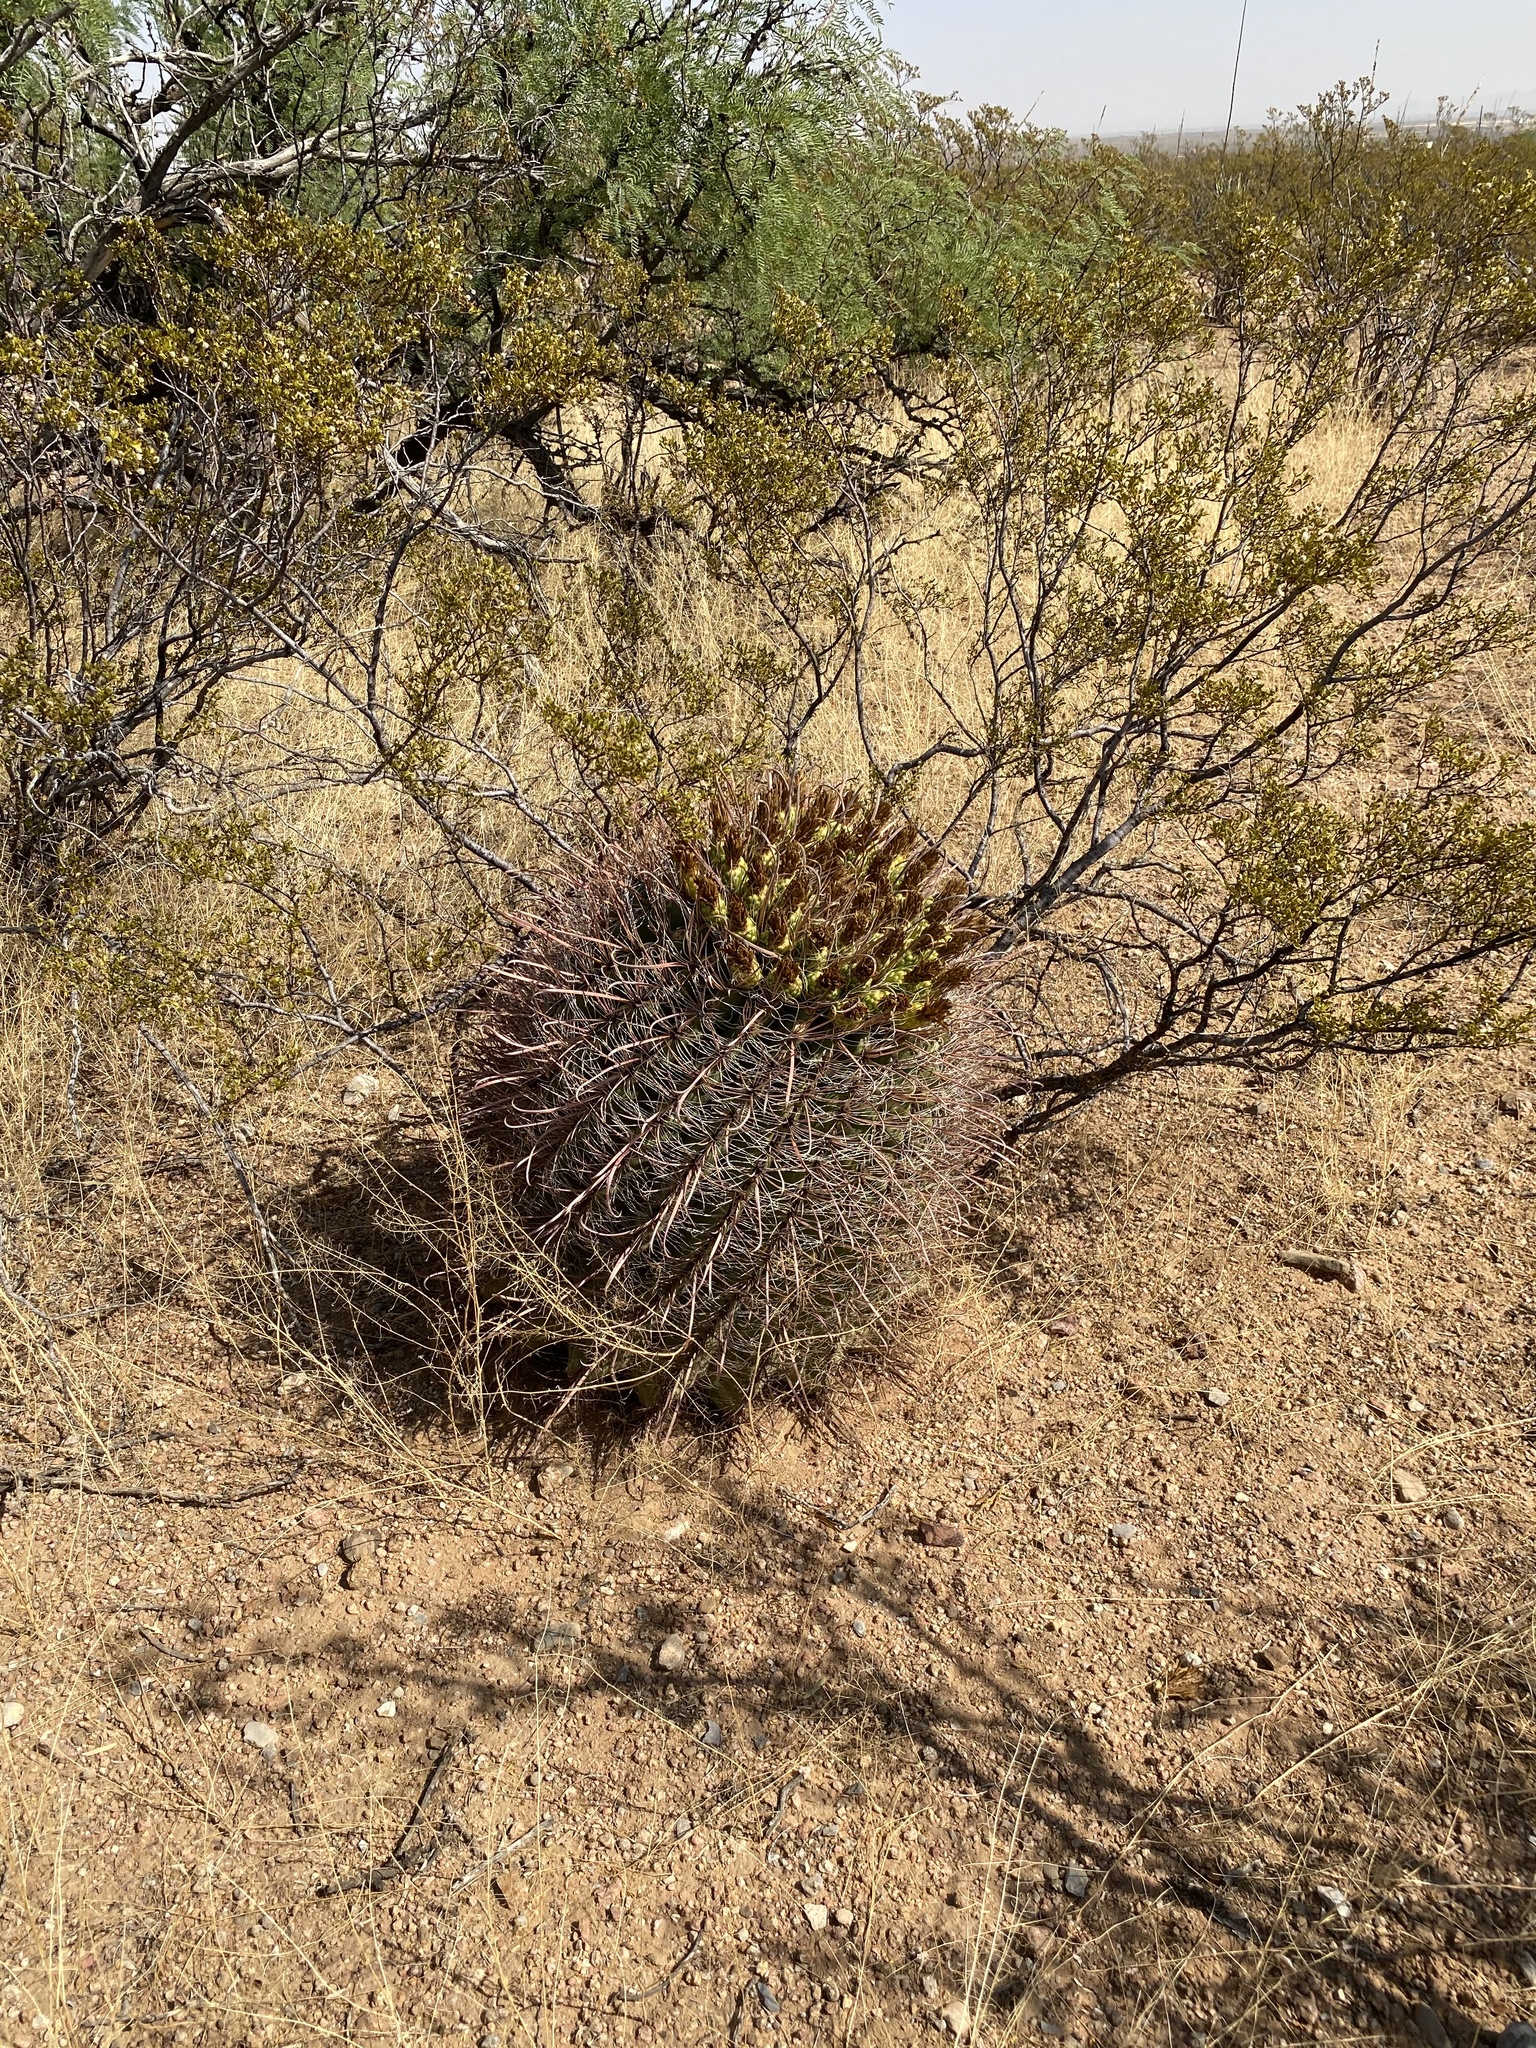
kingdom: Plantae
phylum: Tracheophyta
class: Magnoliopsida
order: Caryophyllales
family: Cactaceae
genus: Ferocactus
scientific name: Ferocactus wislizeni
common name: Candy barrel cactus
